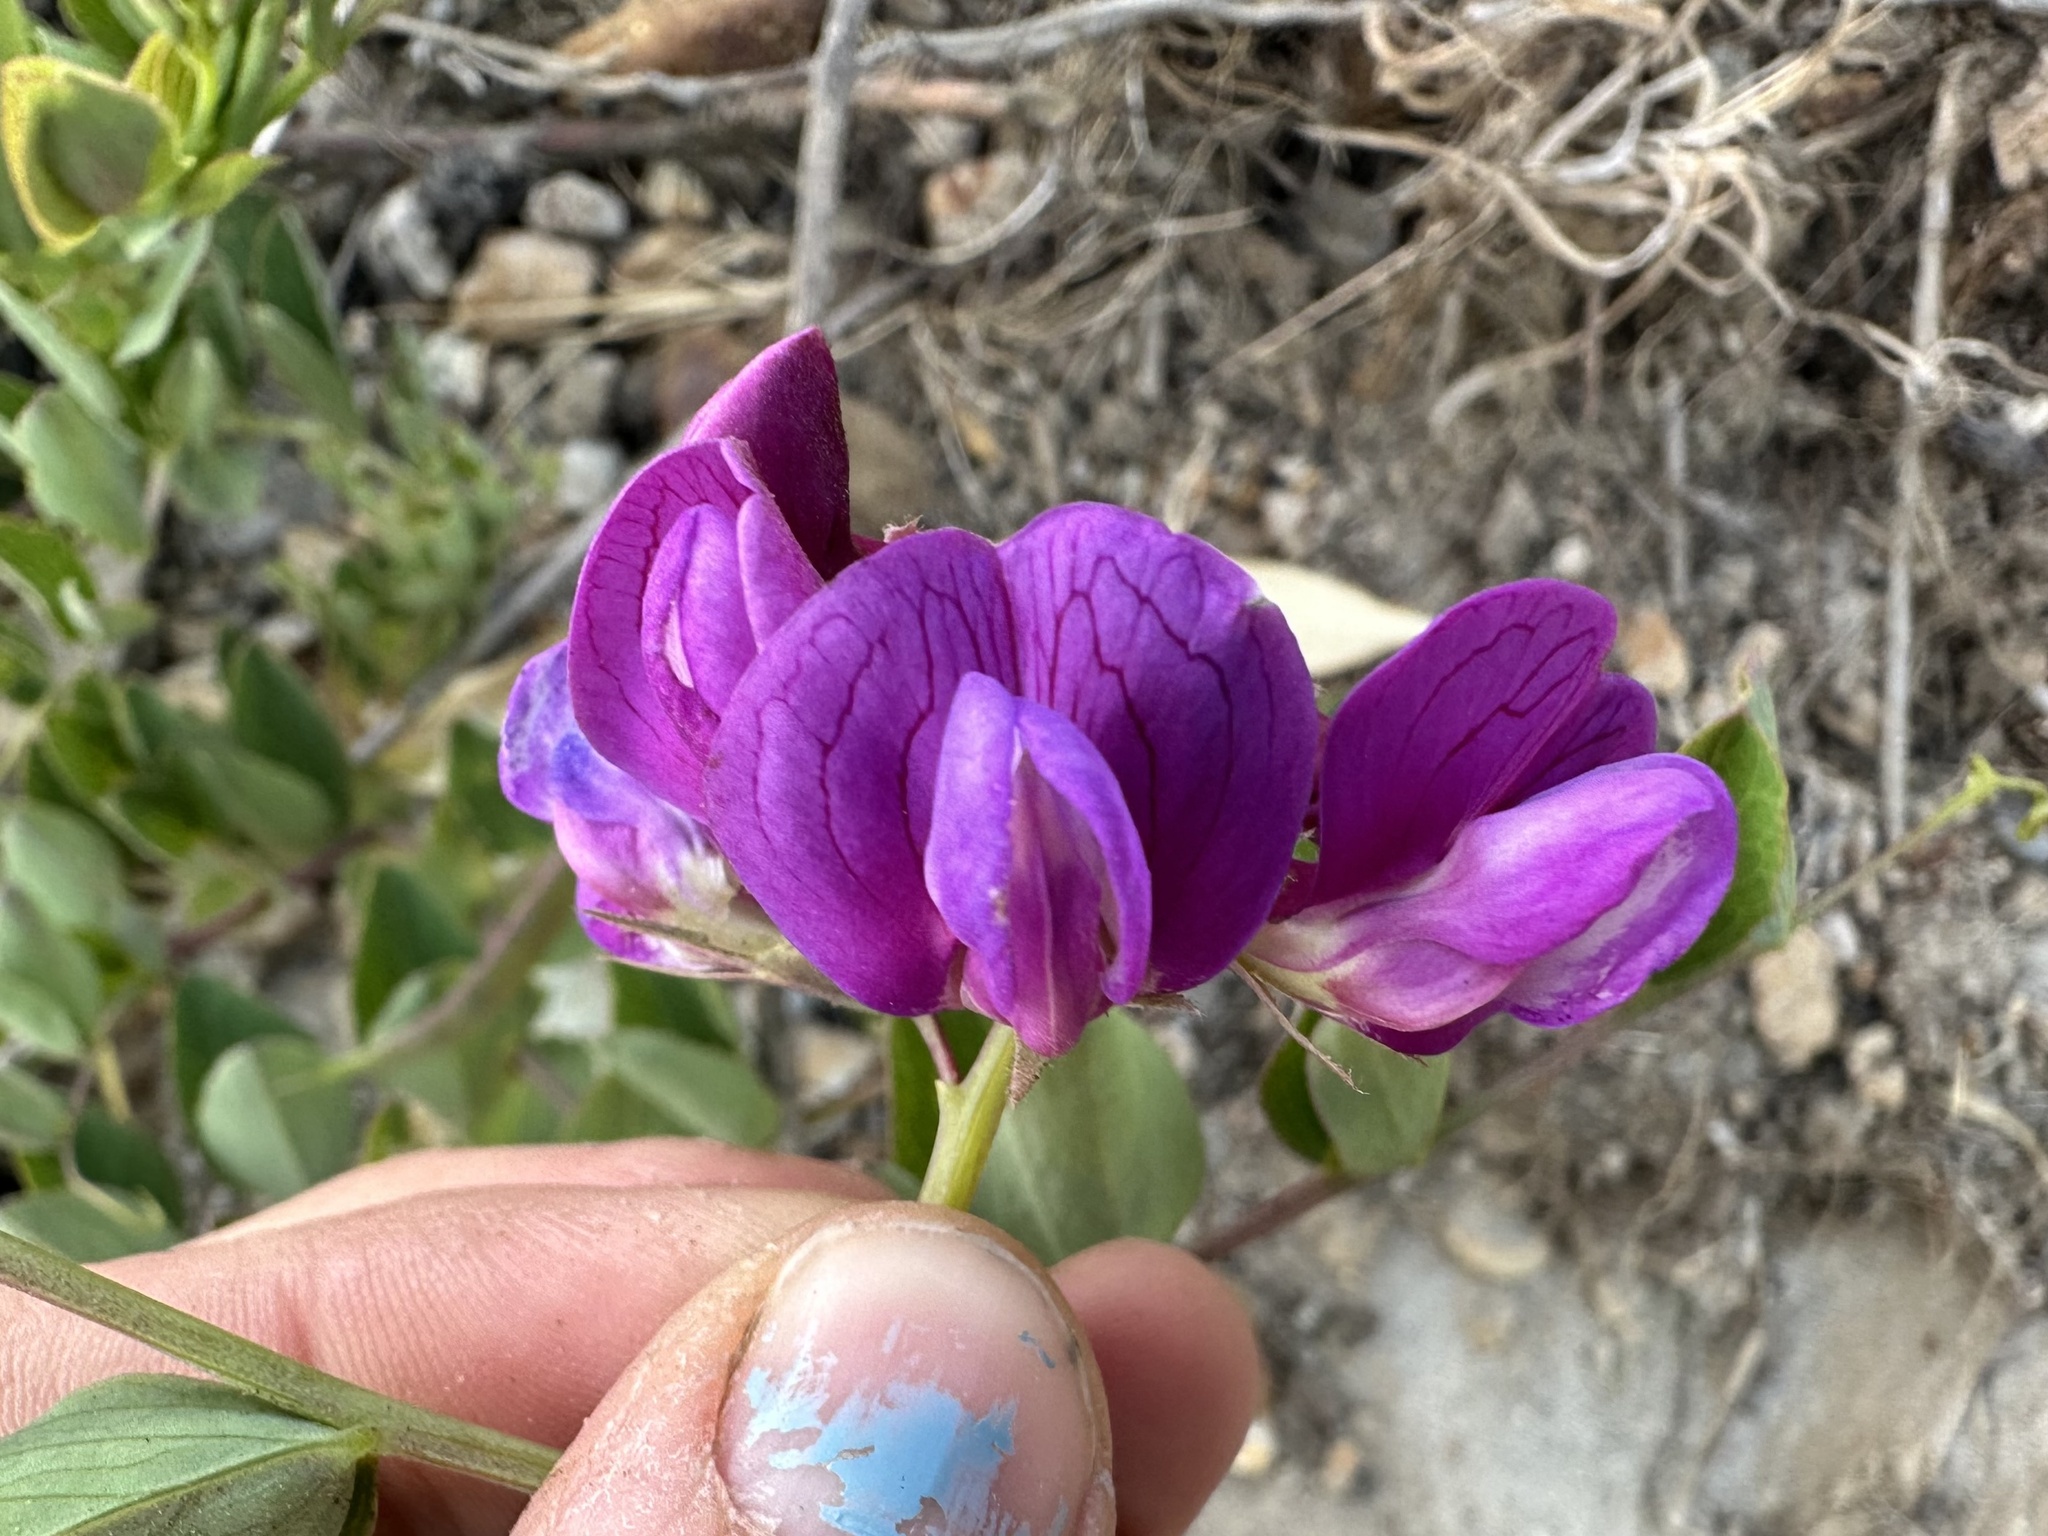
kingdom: Plantae
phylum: Tracheophyta
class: Magnoliopsida
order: Fabales
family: Fabaceae
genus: Lathyrus
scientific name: Lathyrus japonicus
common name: Sea pea
